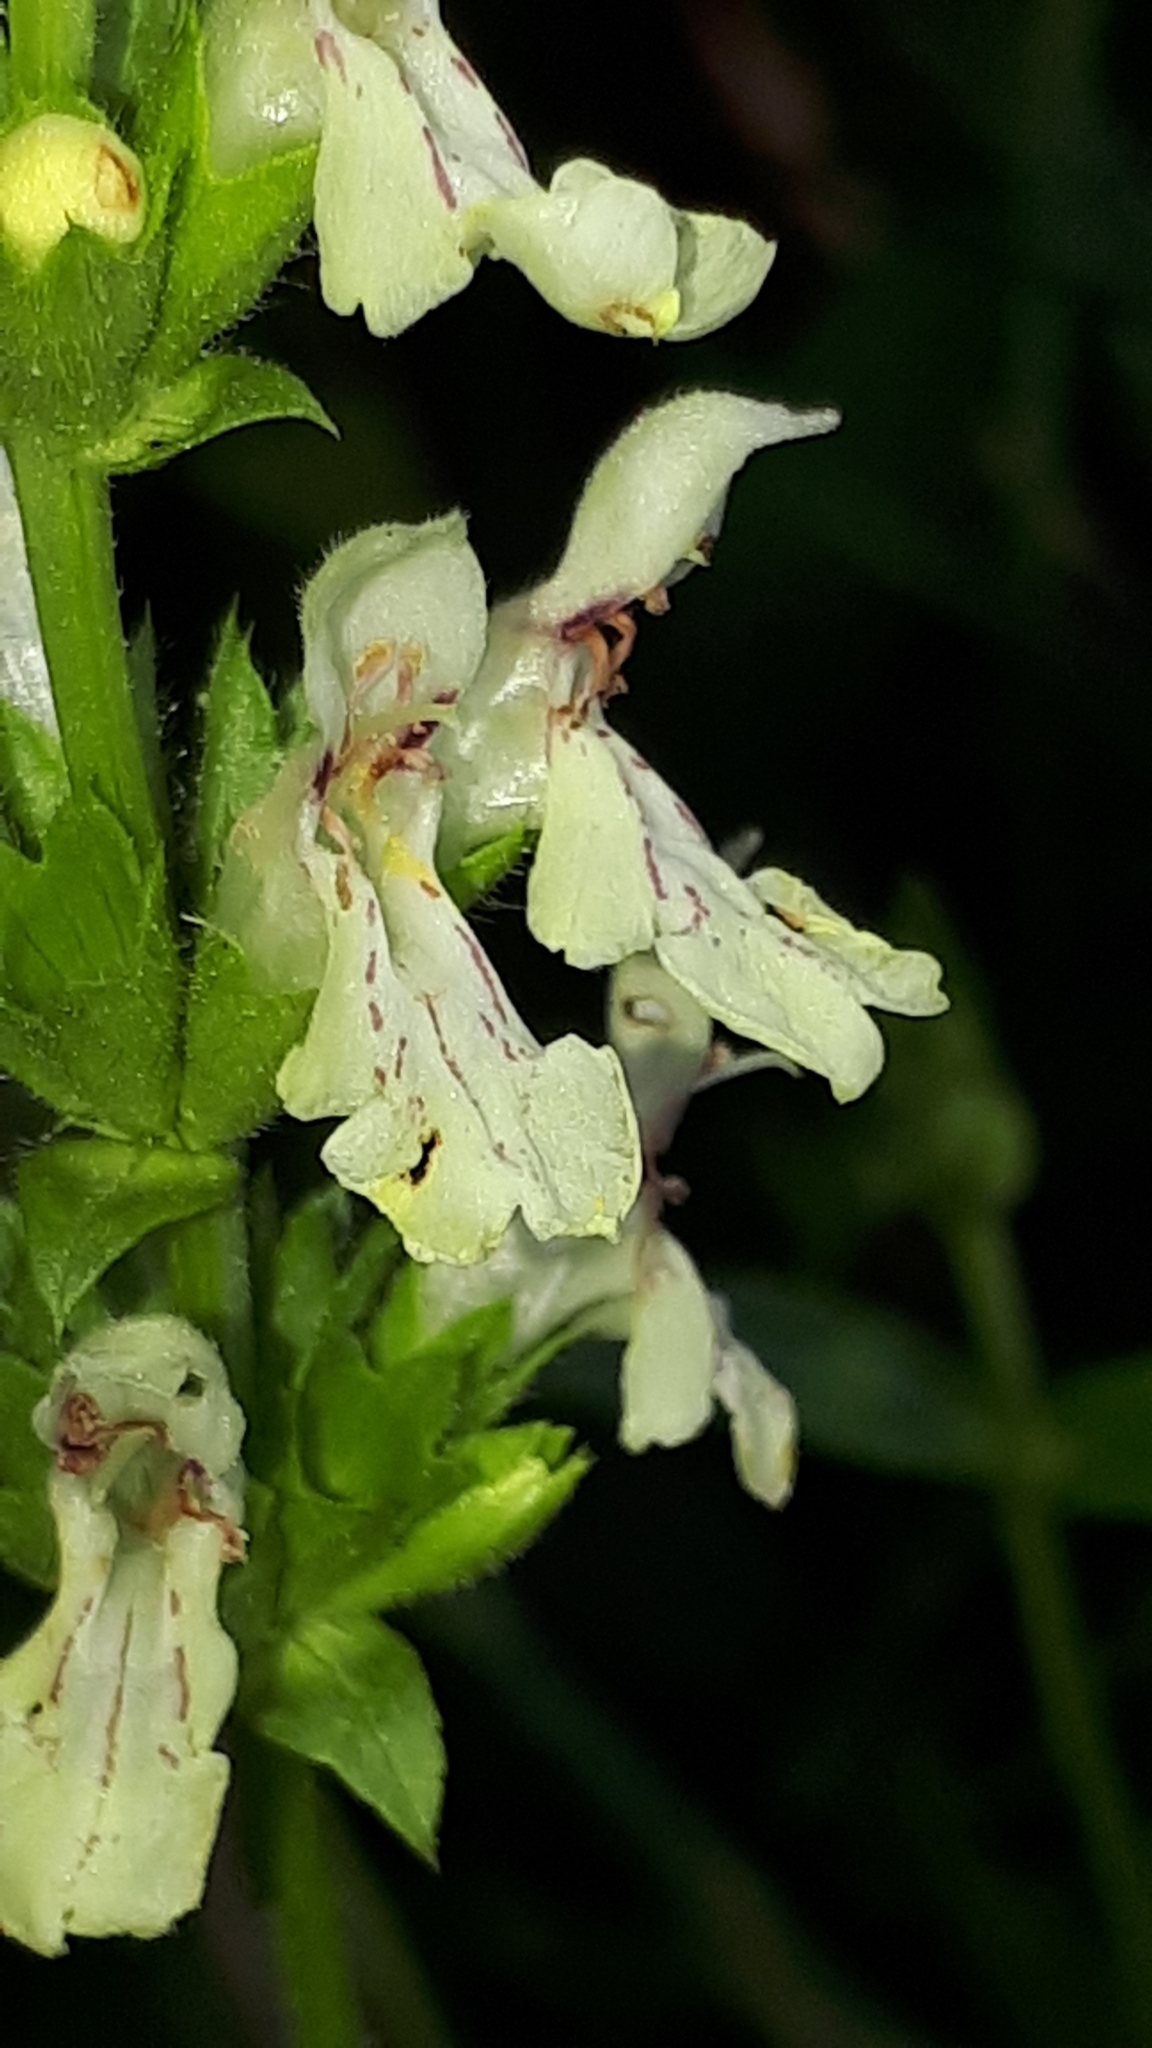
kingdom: Plantae
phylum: Tracheophyta
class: Magnoliopsida
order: Lamiales
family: Lamiaceae
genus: Stachys
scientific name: Stachys recta
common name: Perennial yellow-woundwort
